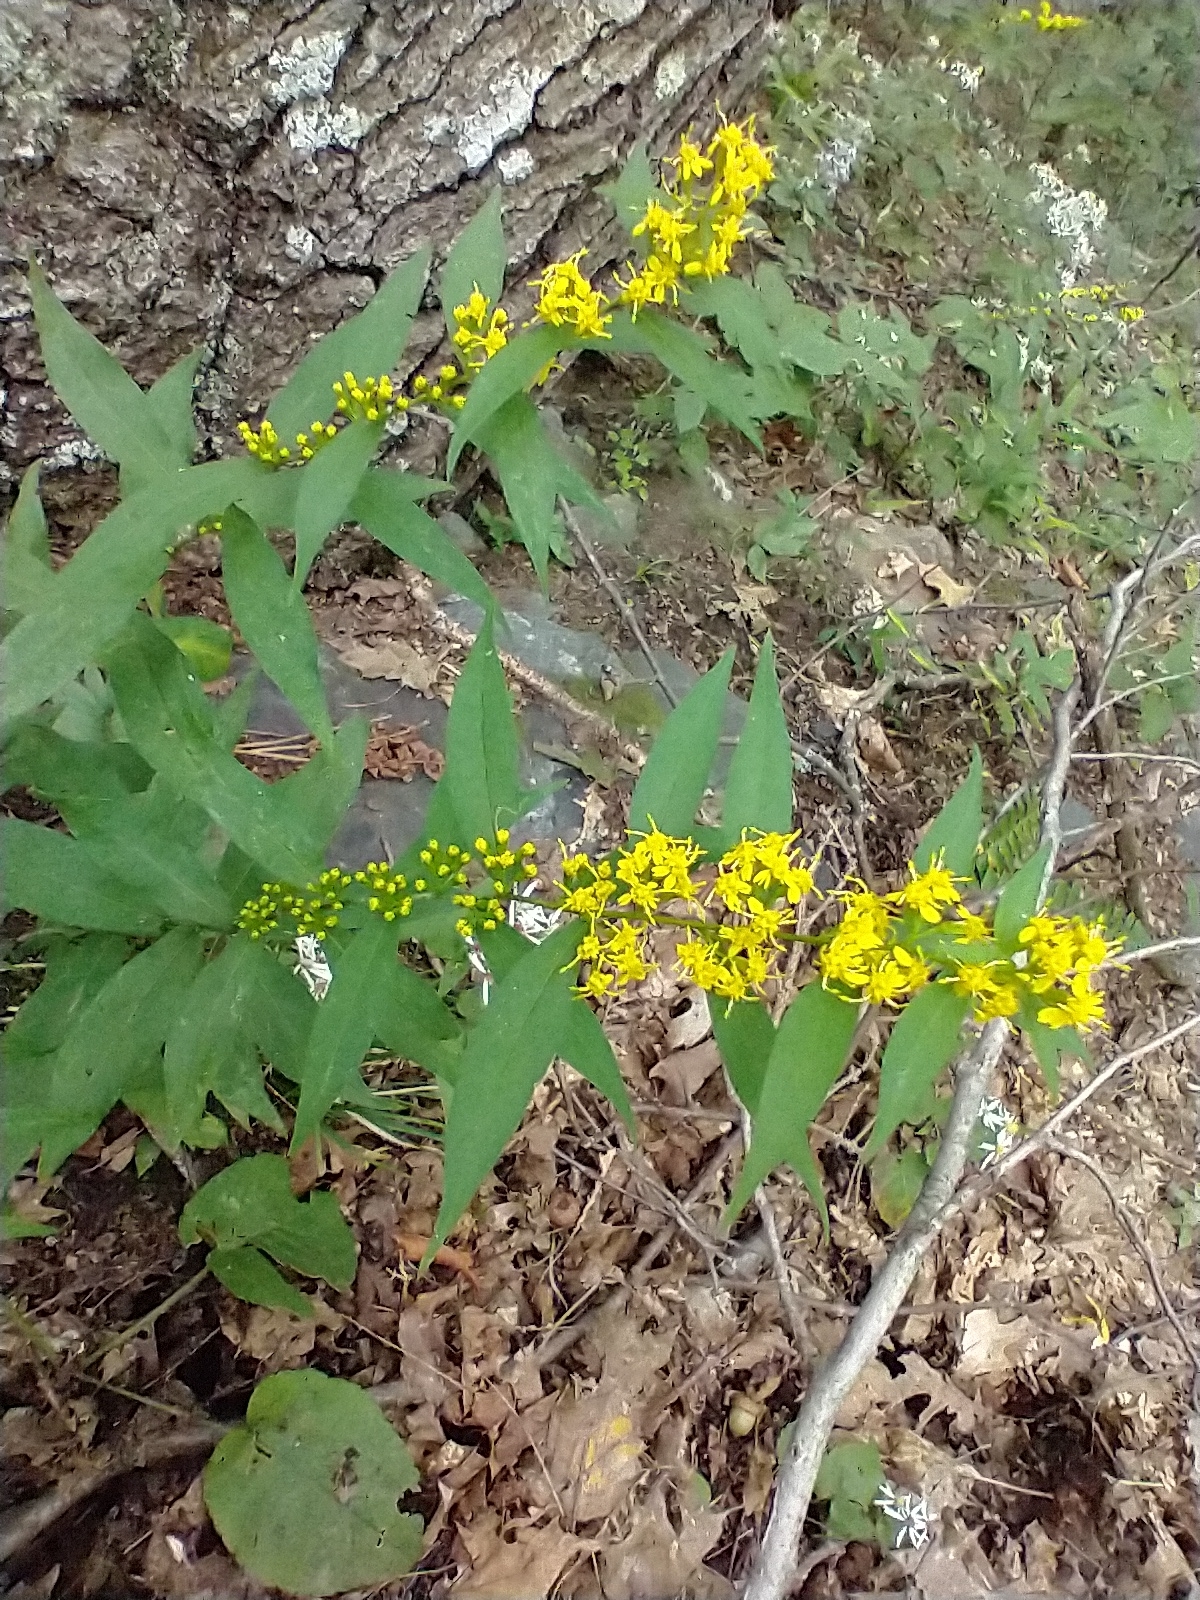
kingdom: Plantae
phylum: Tracheophyta
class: Magnoliopsida
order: Asterales
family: Asteraceae
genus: Solidago
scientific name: Solidago caesia
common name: Woodland goldenrod
